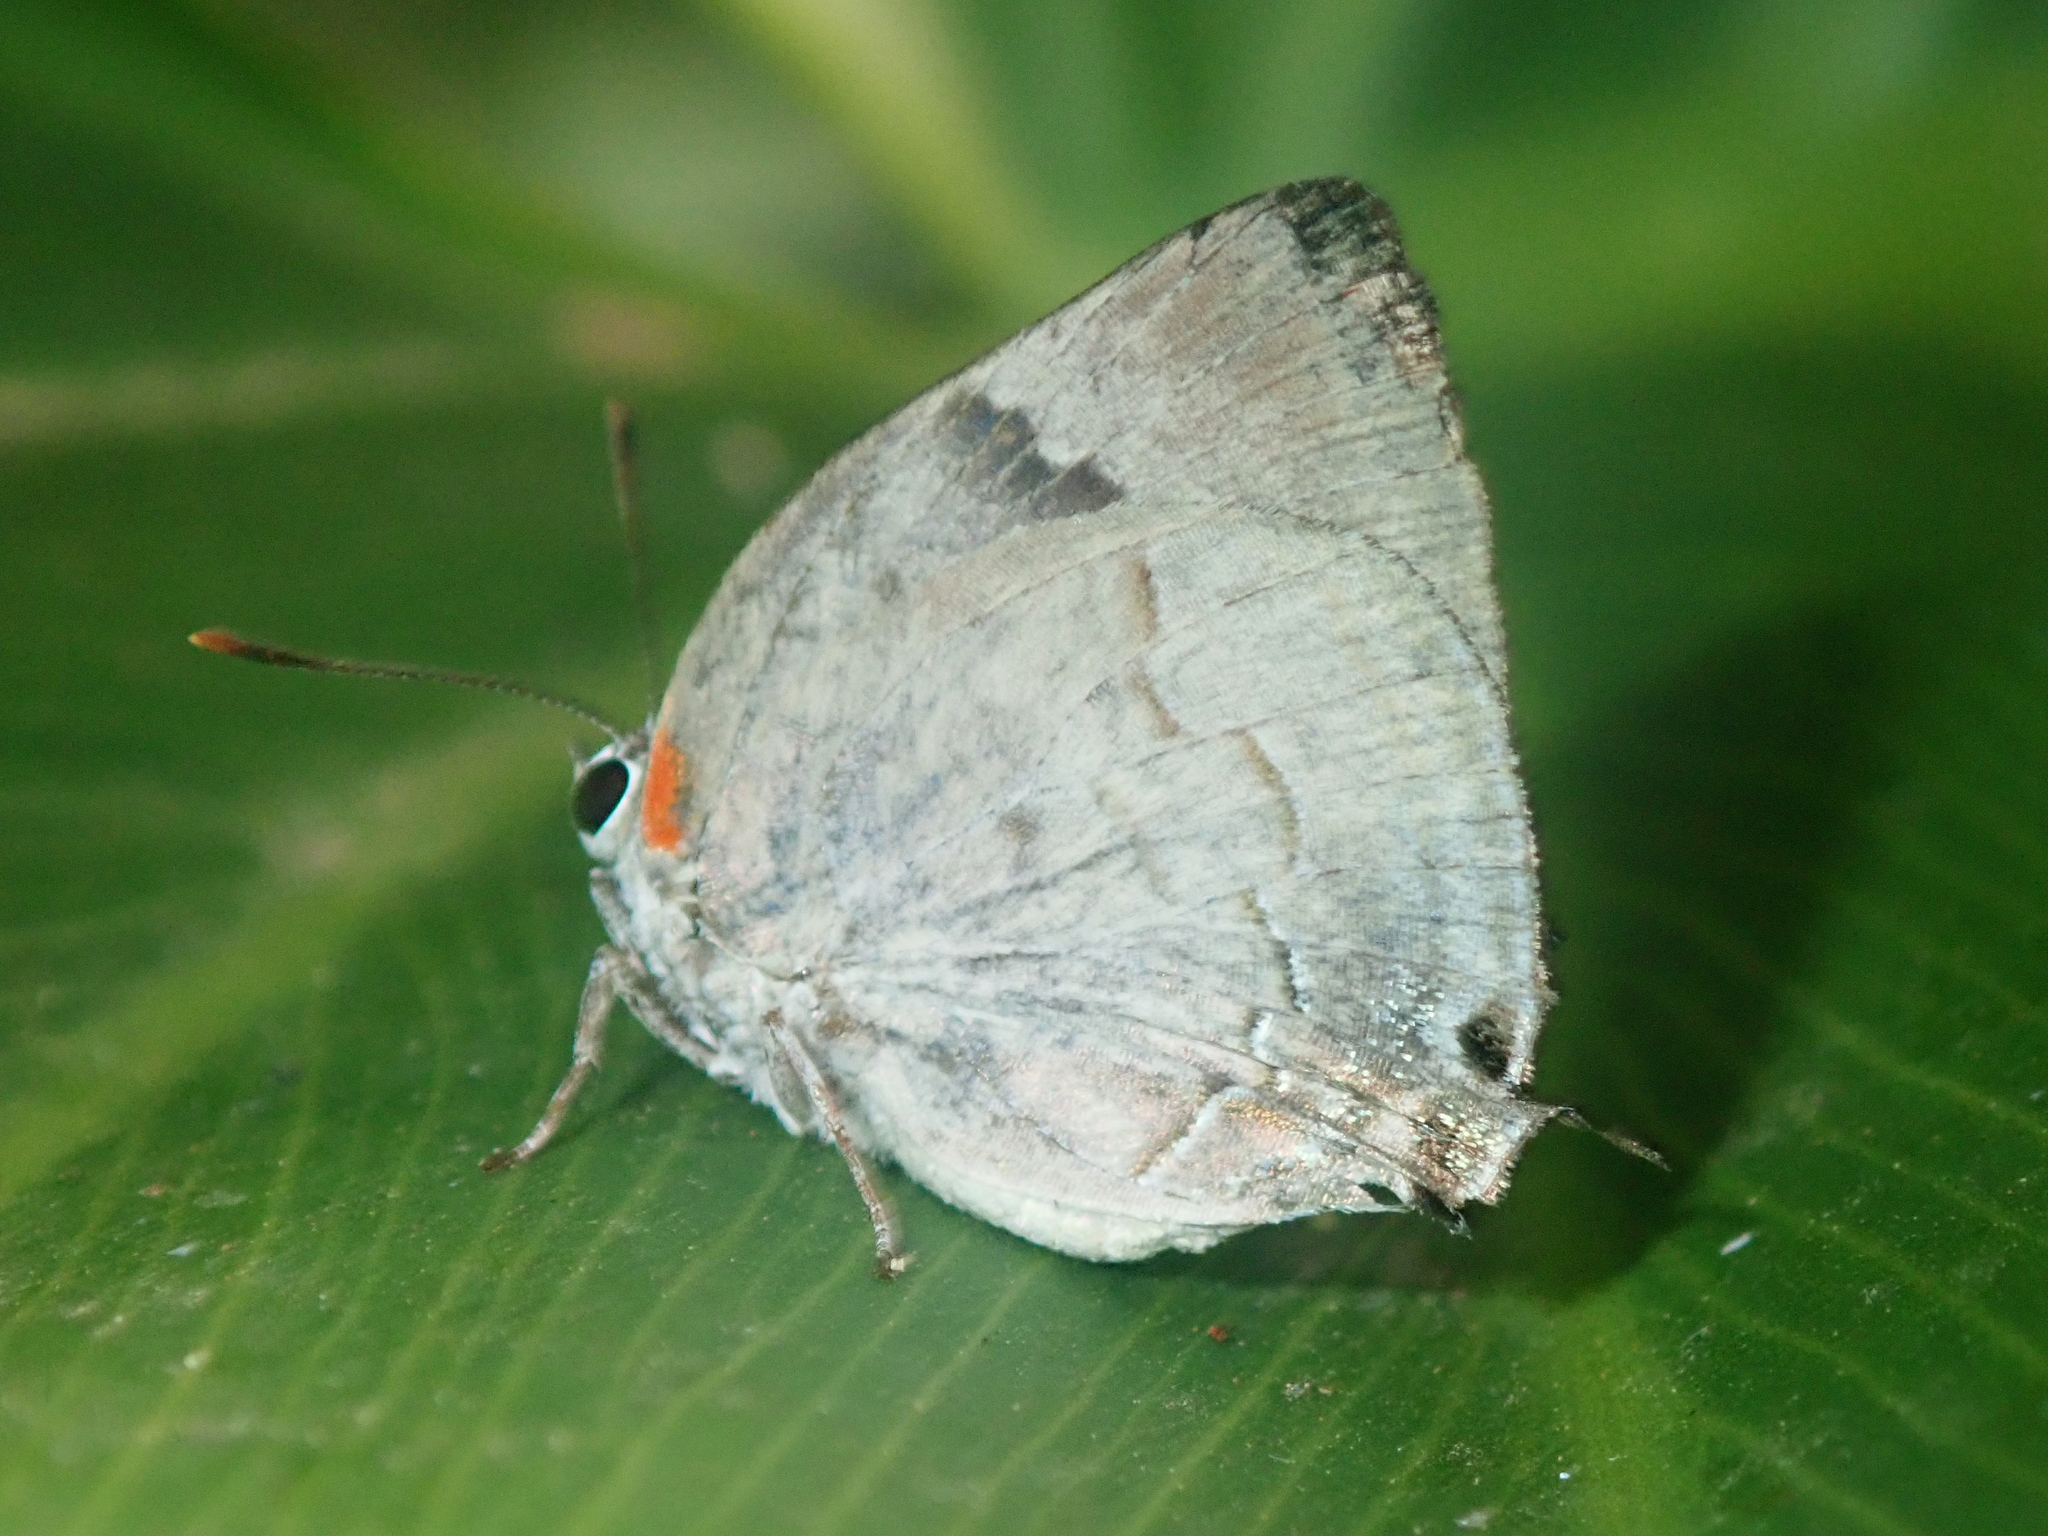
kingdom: Animalia
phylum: Arthropoda
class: Insecta
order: Lepidoptera
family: Lycaenidae
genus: Panthiades
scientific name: Panthiades bitias
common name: Bitias hairstreak
